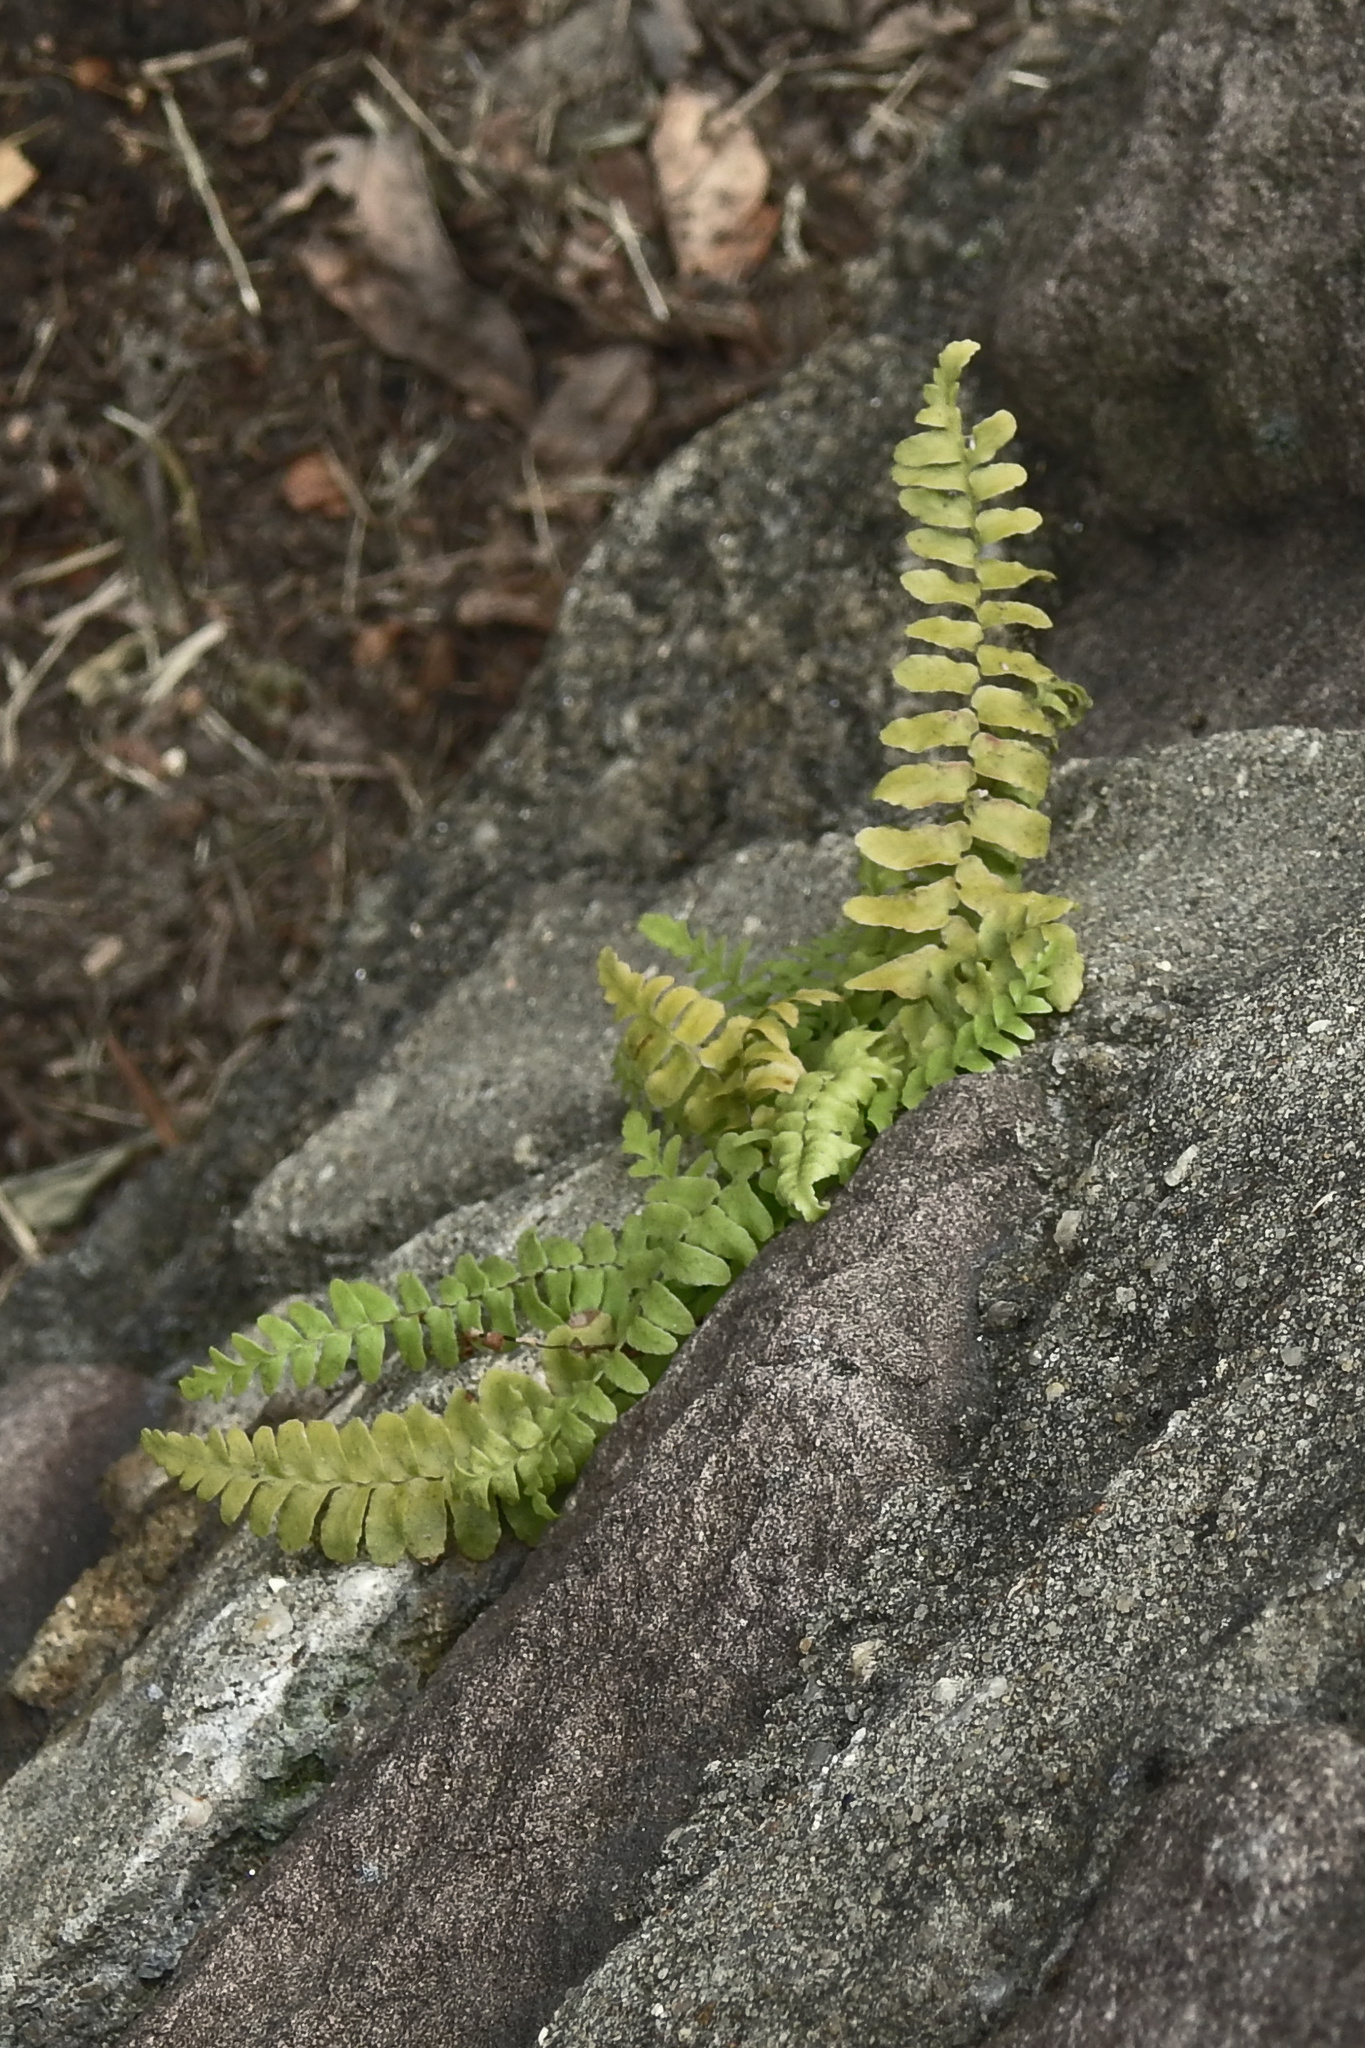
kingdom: Plantae
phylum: Tracheophyta
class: Polypodiopsida
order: Polypodiales
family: Aspleniaceae
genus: Asplenium
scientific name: Asplenium platyneuron
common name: Ebony spleenwort
